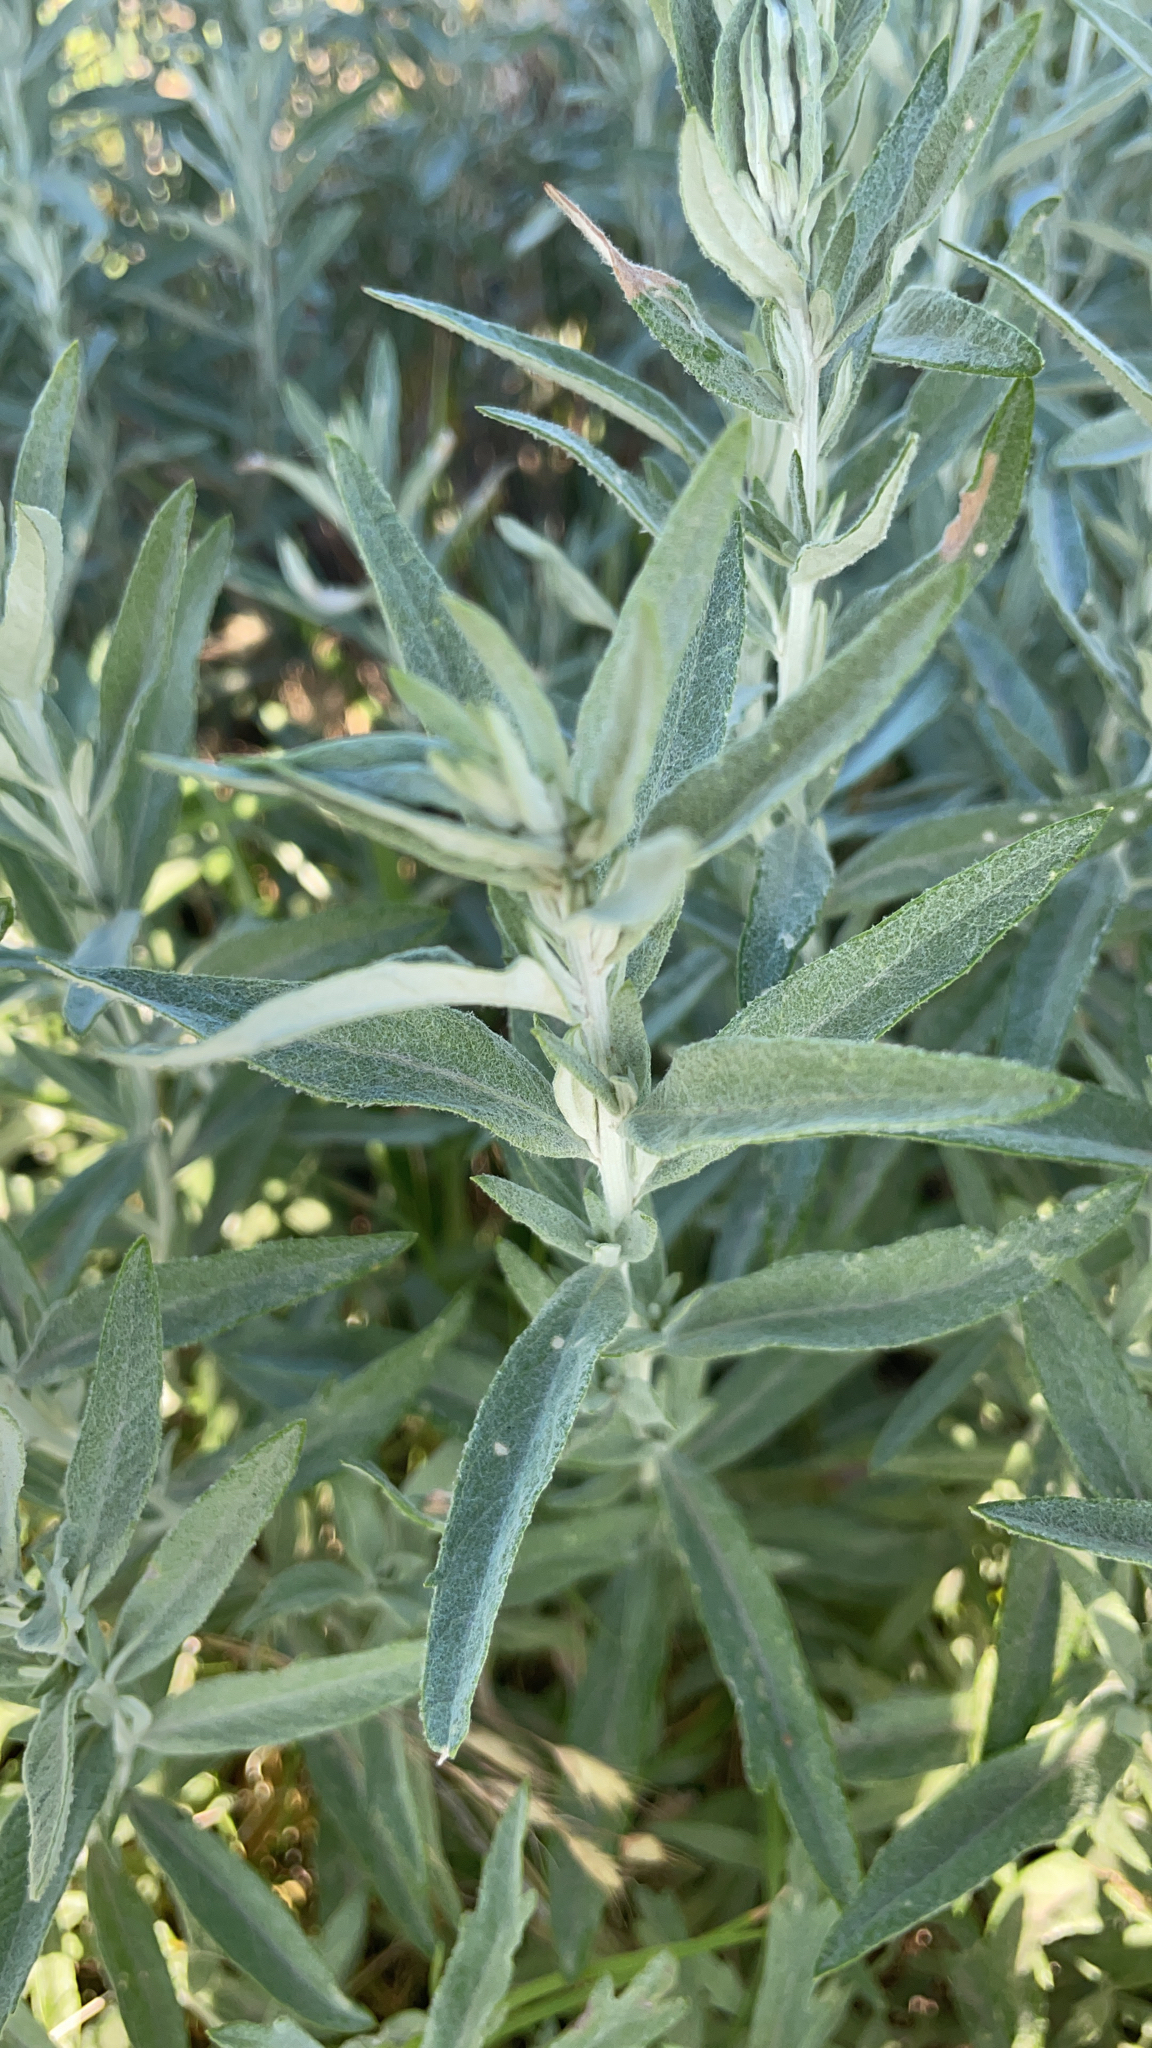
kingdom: Plantae
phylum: Tracheophyta
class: Magnoliopsida
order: Asterales
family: Asteraceae
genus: Artemisia
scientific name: Artemisia ludoviciana
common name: Western mugwort
